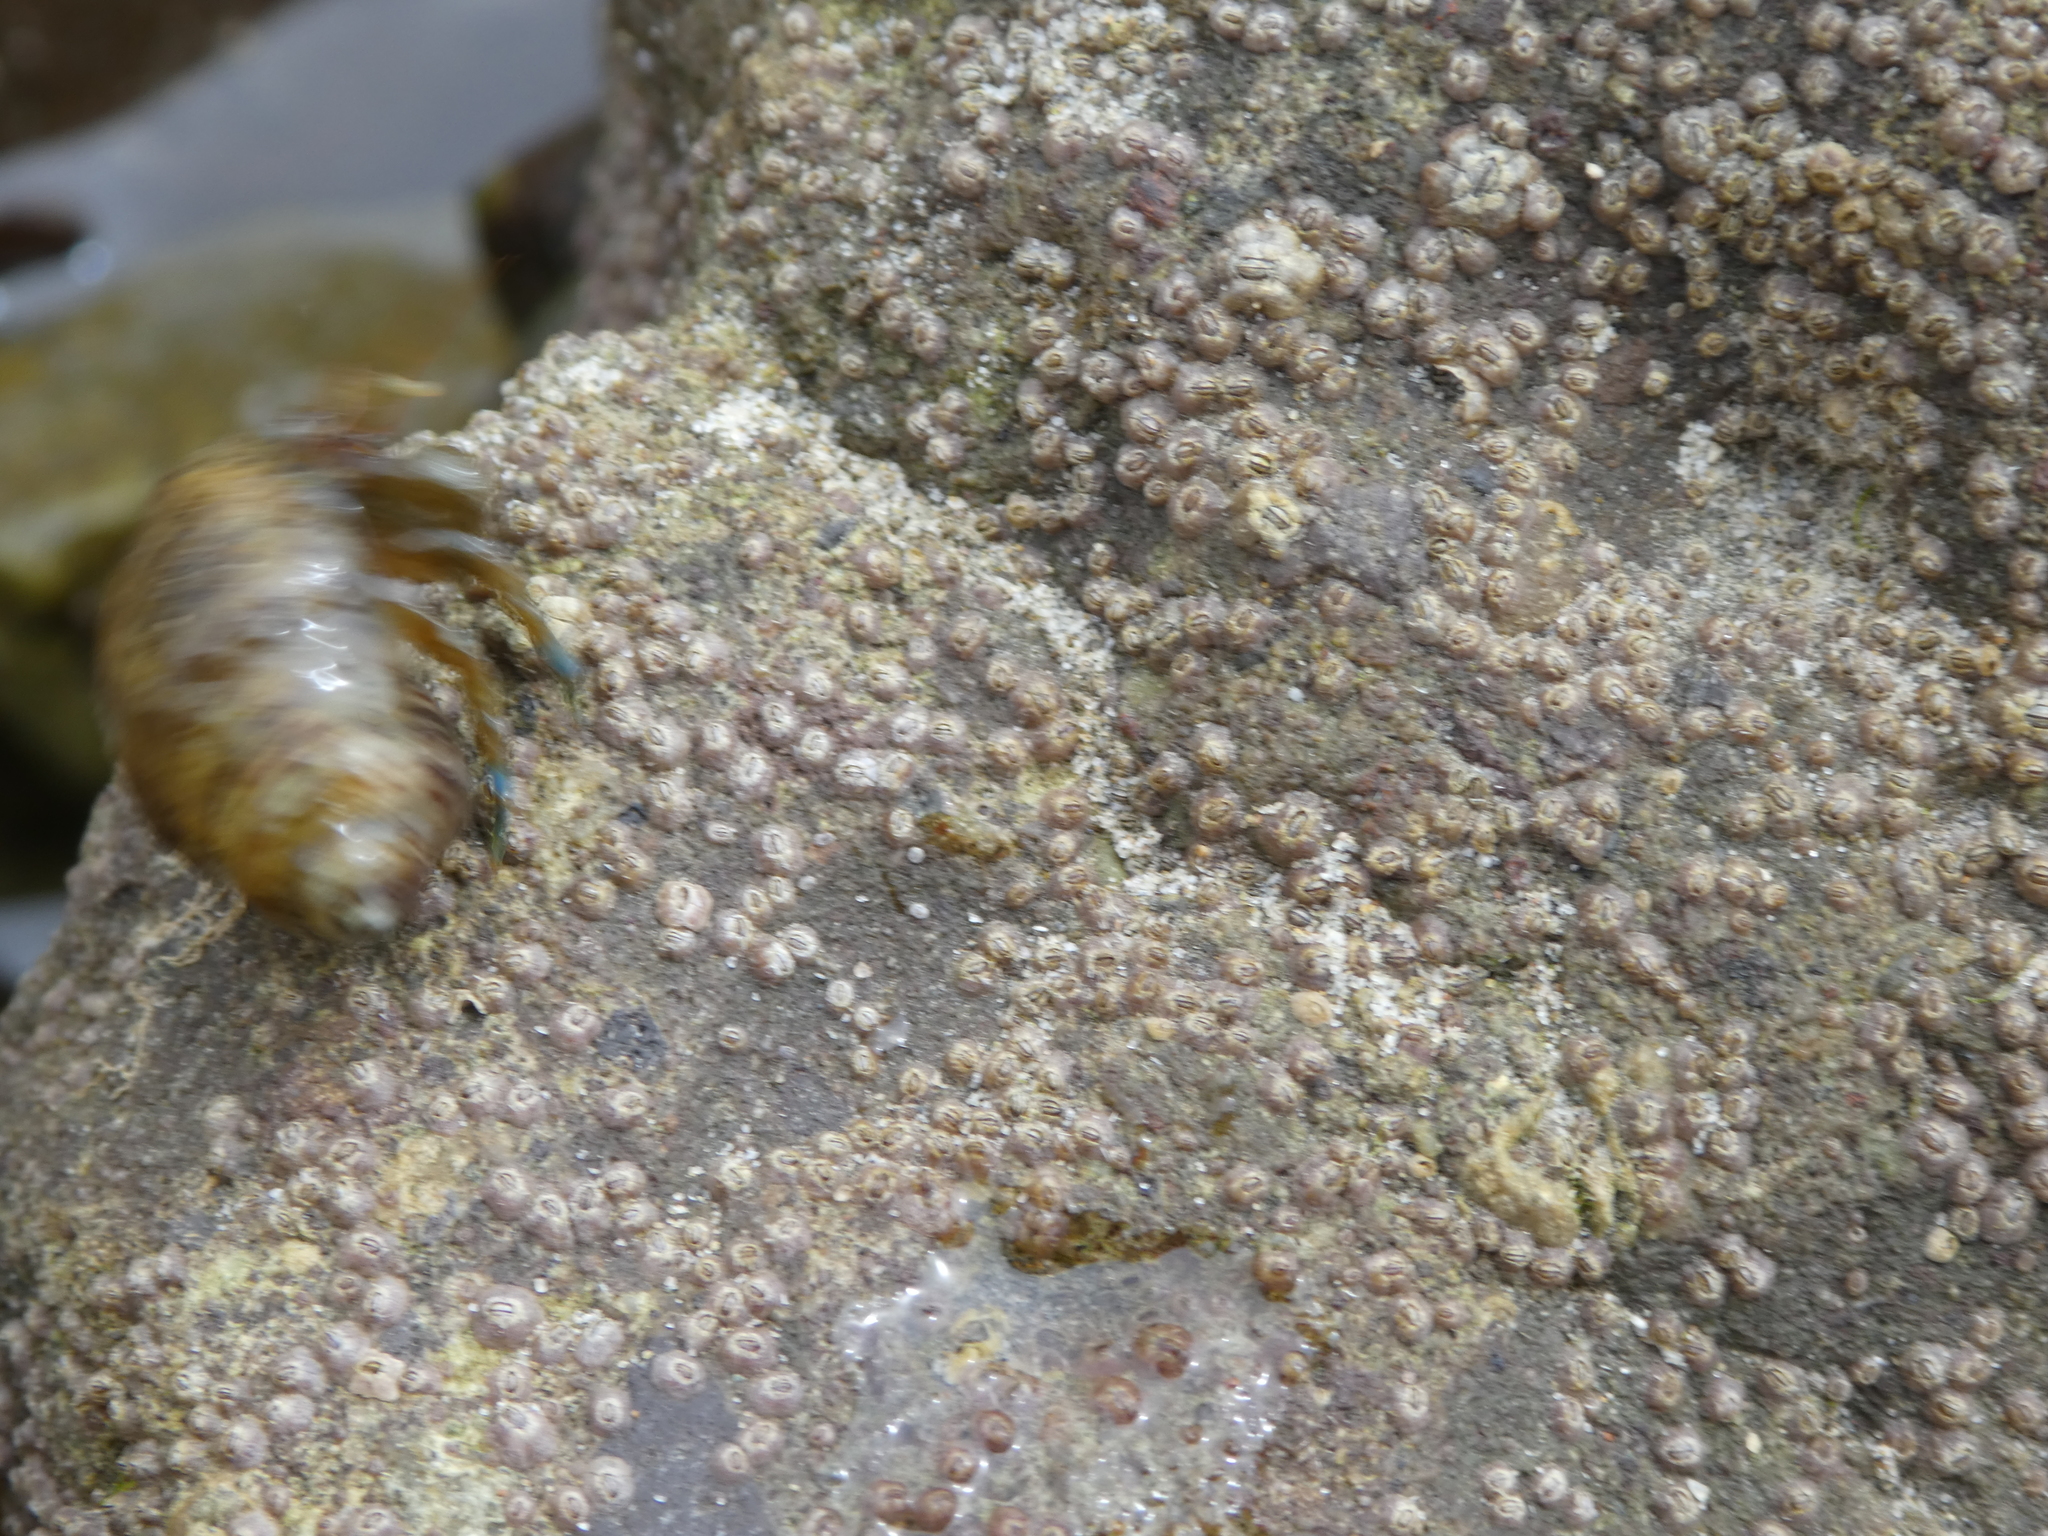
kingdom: Animalia
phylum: Arthropoda
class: Malacostraca
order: Decapoda
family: Paguridae
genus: Pagurus
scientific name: Pagurus samuelis
